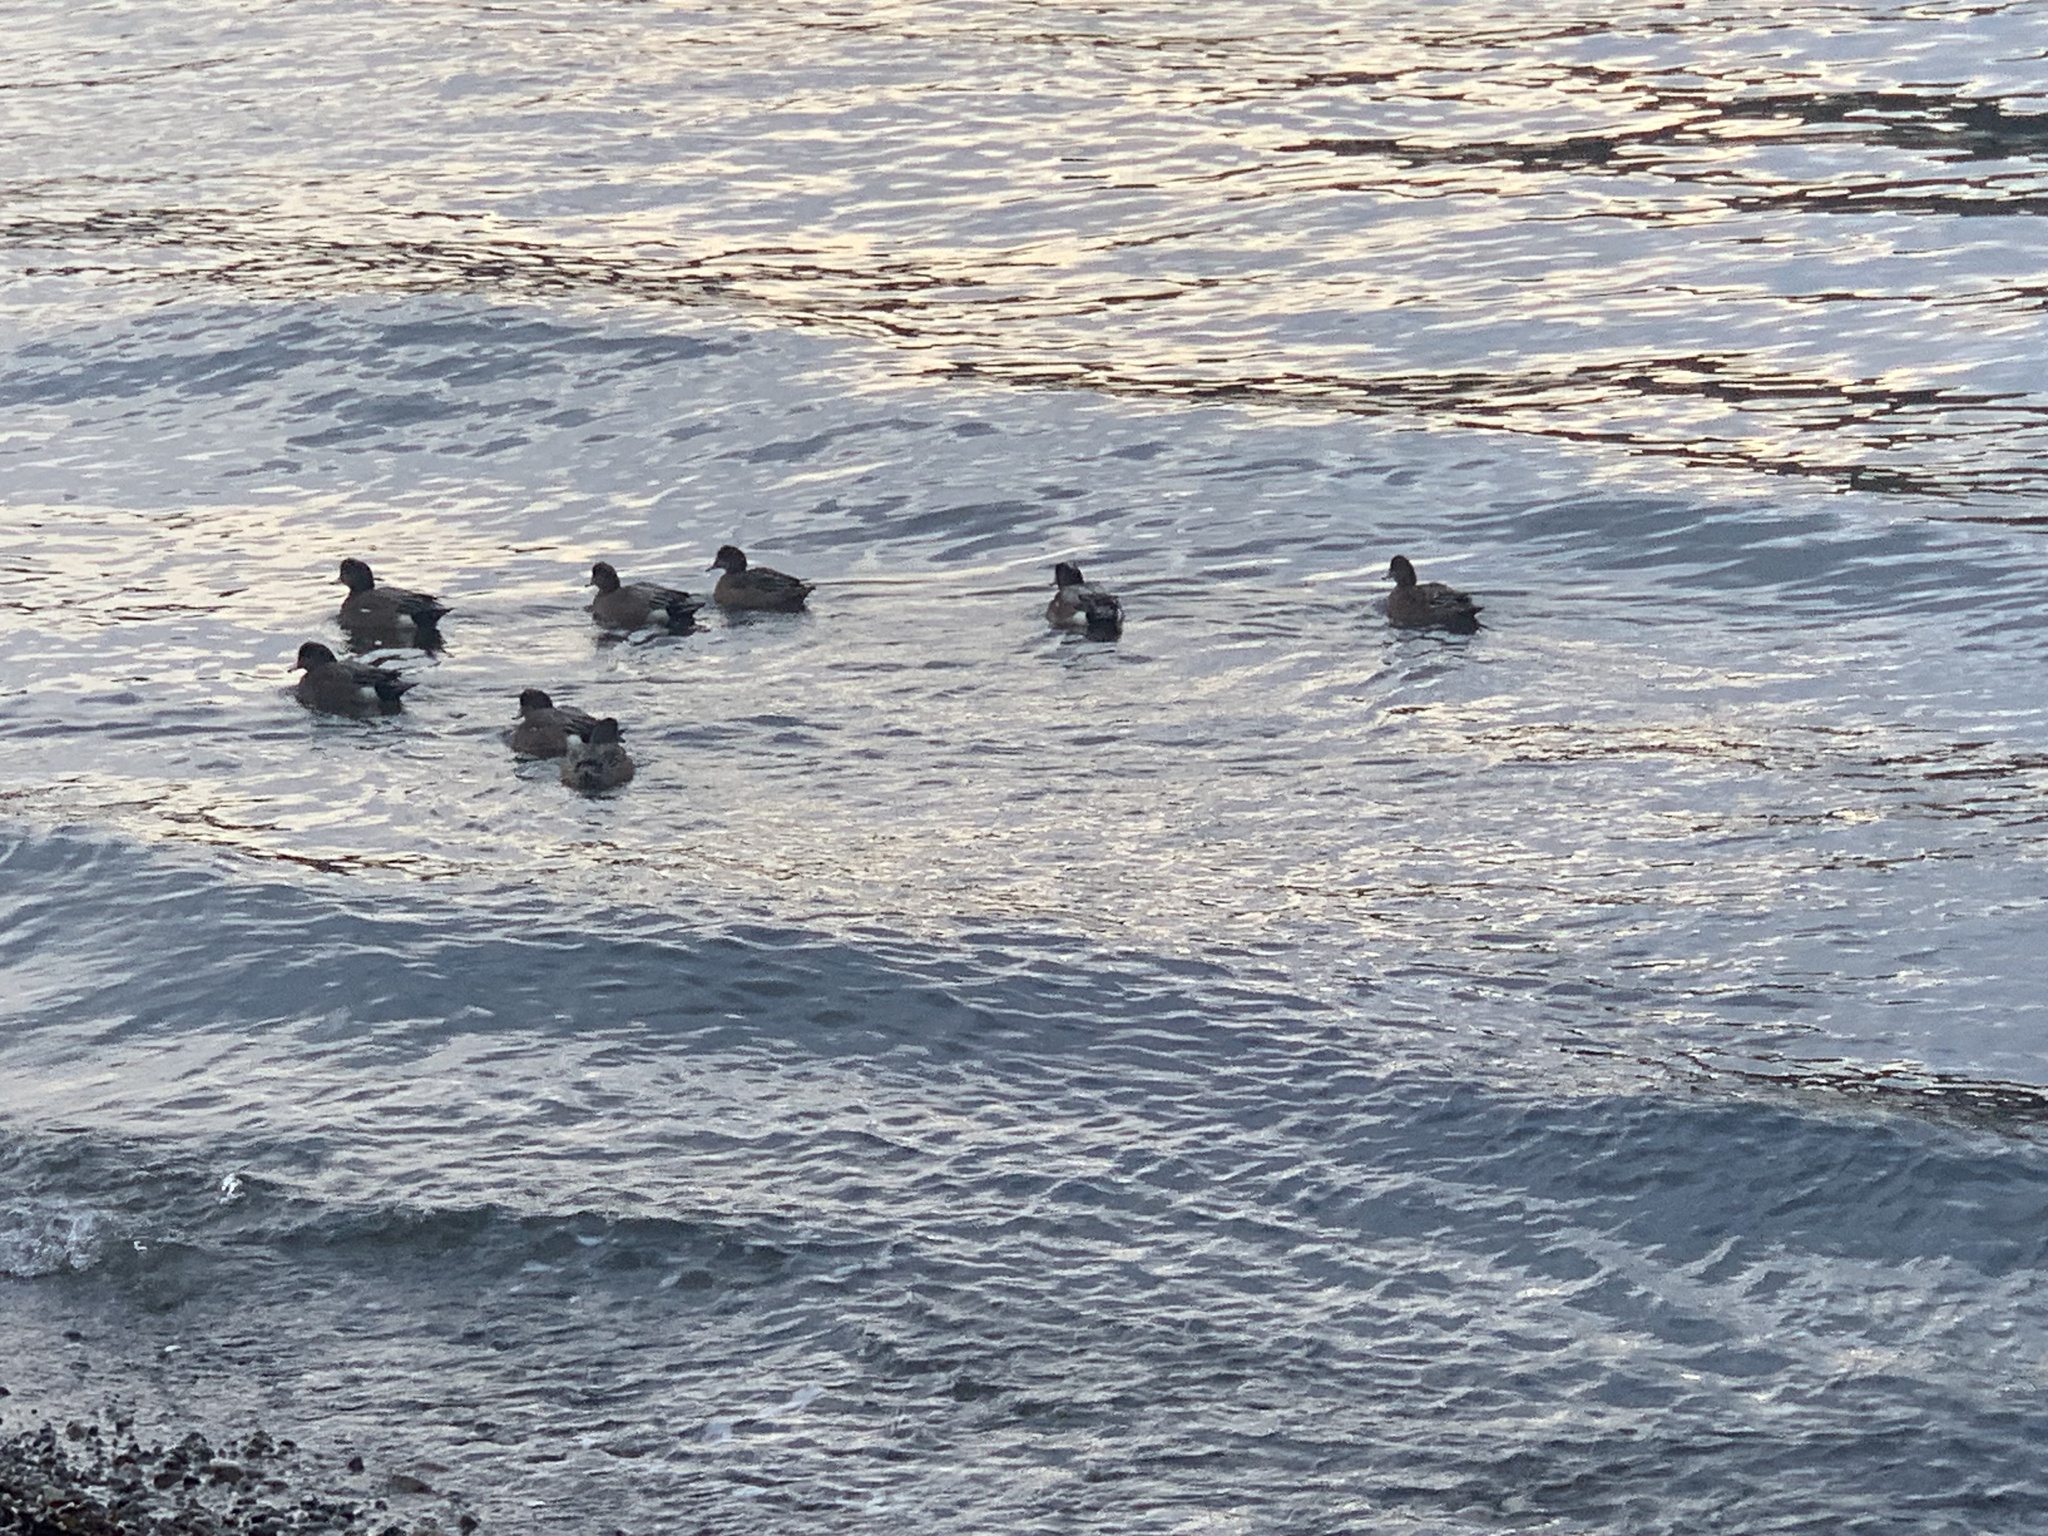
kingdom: Animalia
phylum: Chordata
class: Aves
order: Anseriformes
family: Anatidae
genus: Mareca
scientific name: Mareca americana
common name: American wigeon
